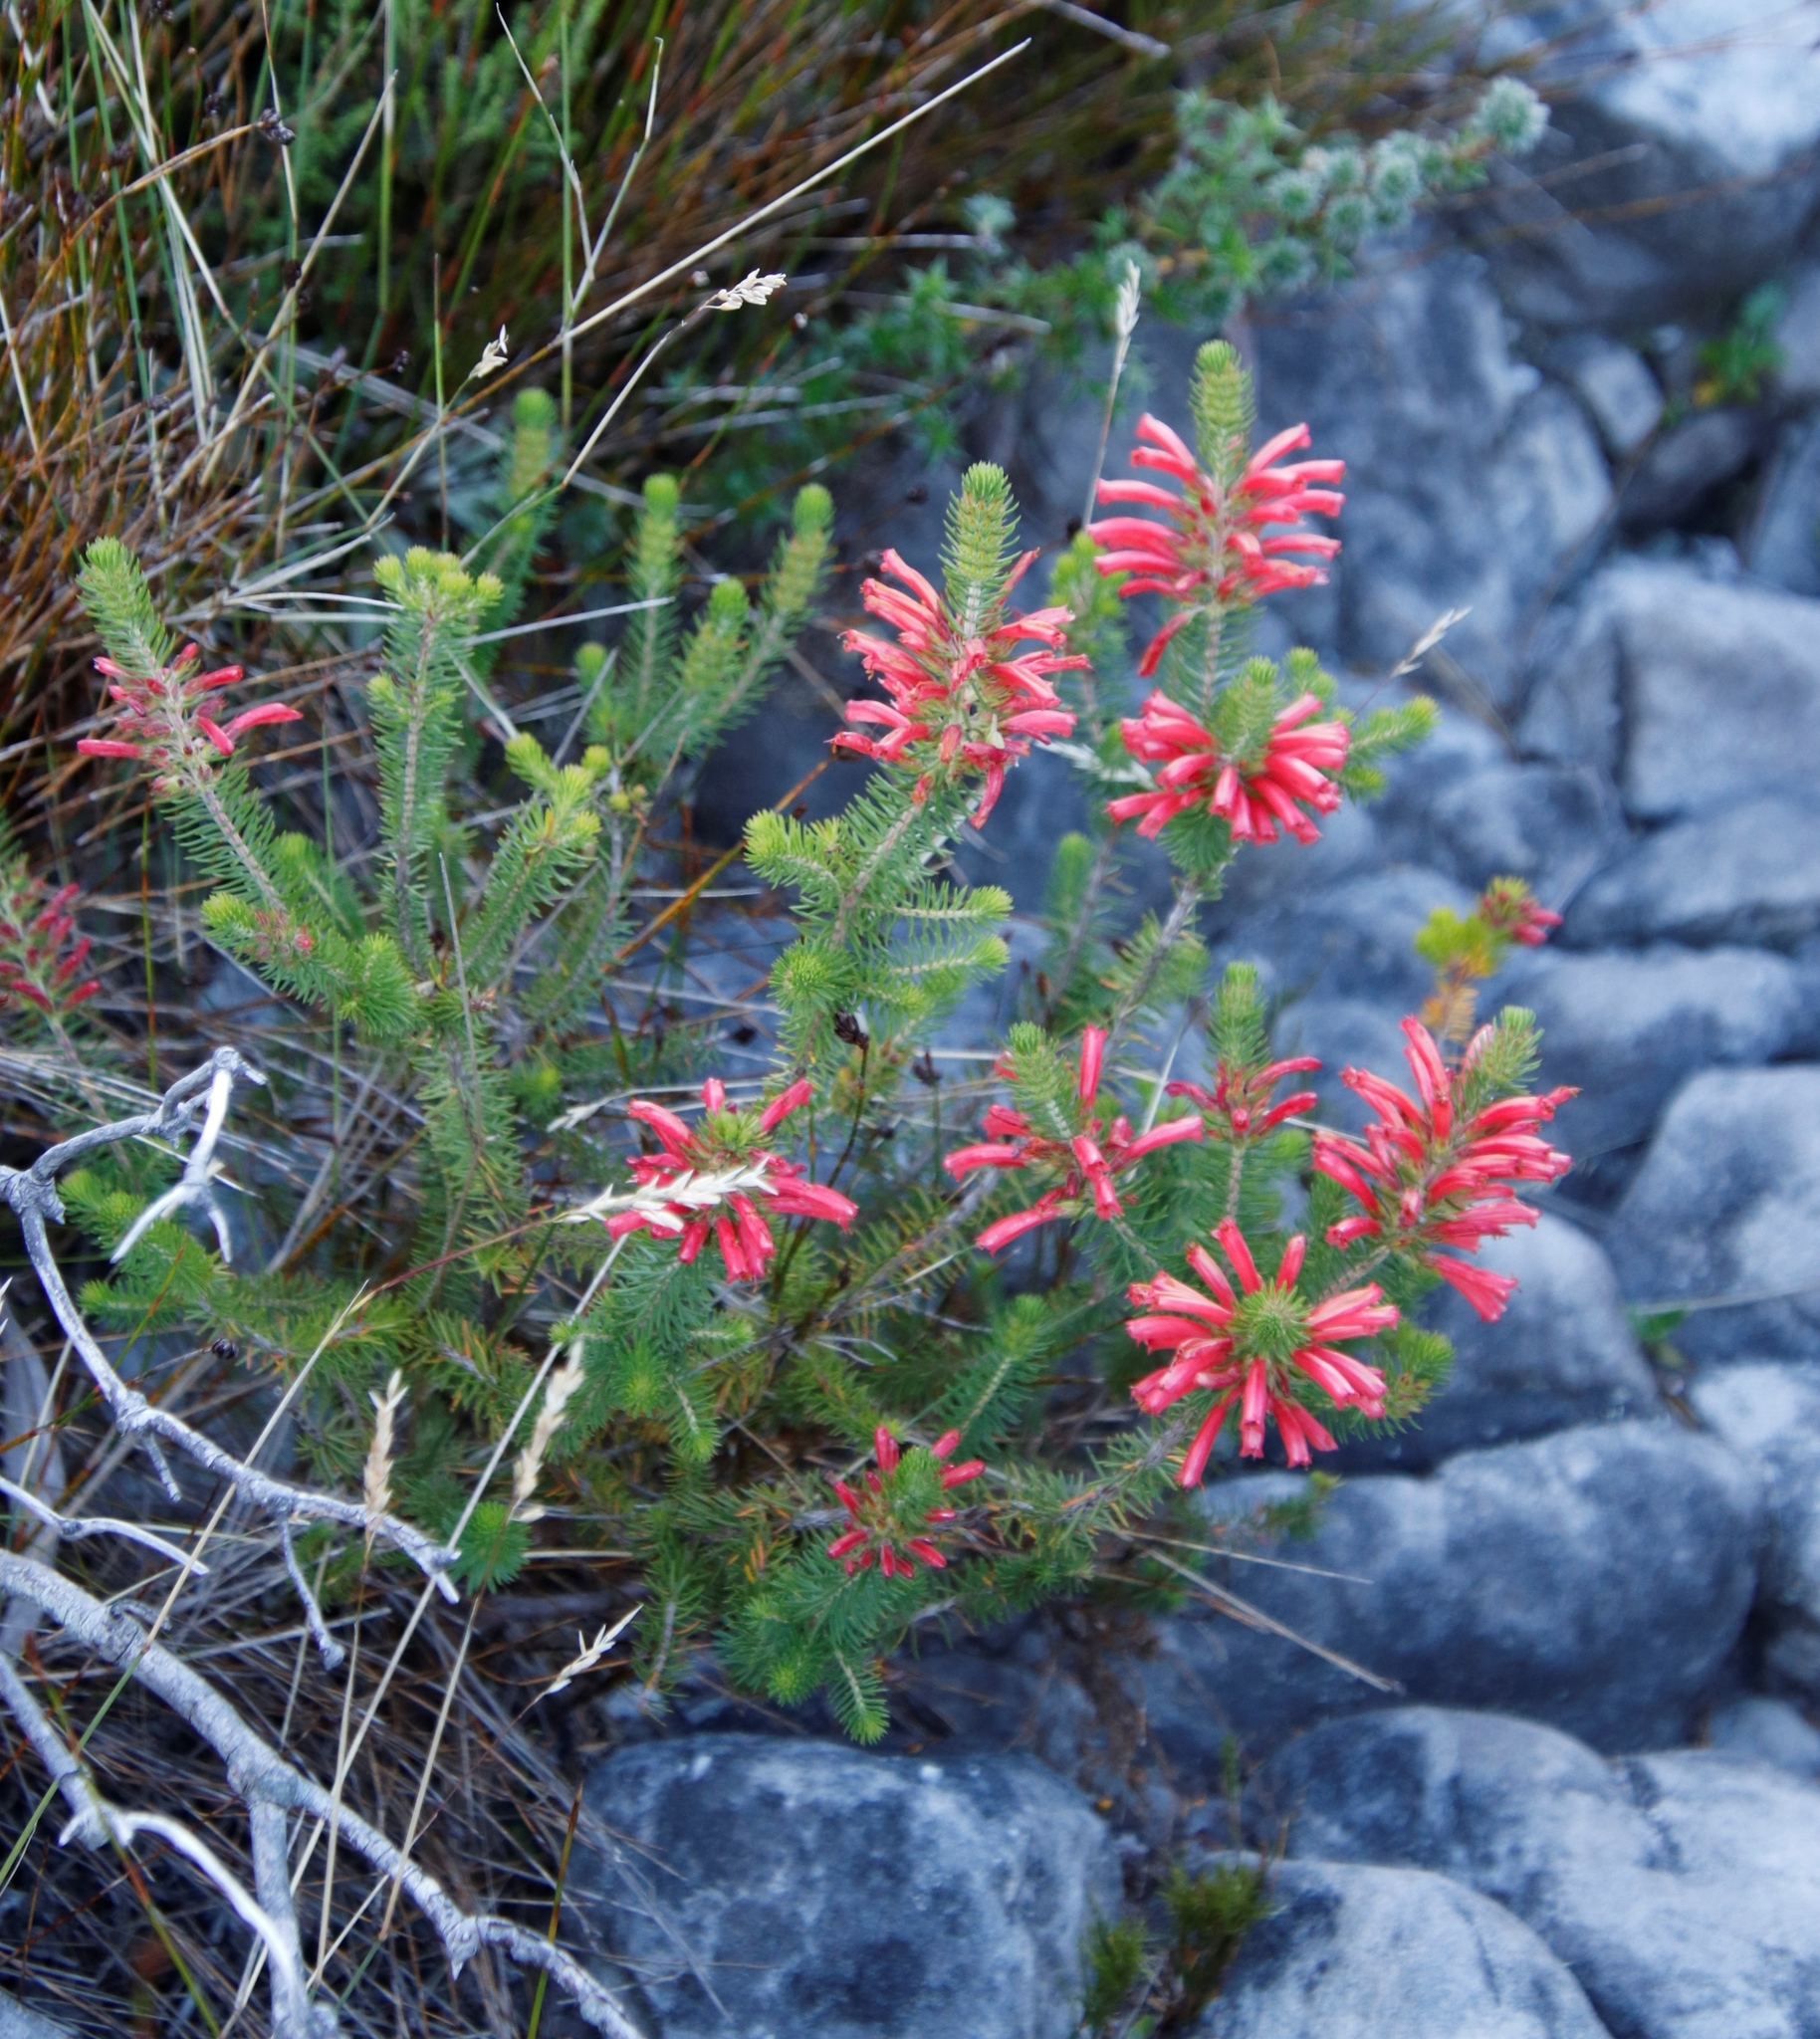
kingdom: Plantae
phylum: Tracheophyta
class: Magnoliopsida
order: Ericales
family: Ericaceae
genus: Erica
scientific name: Erica abietina
